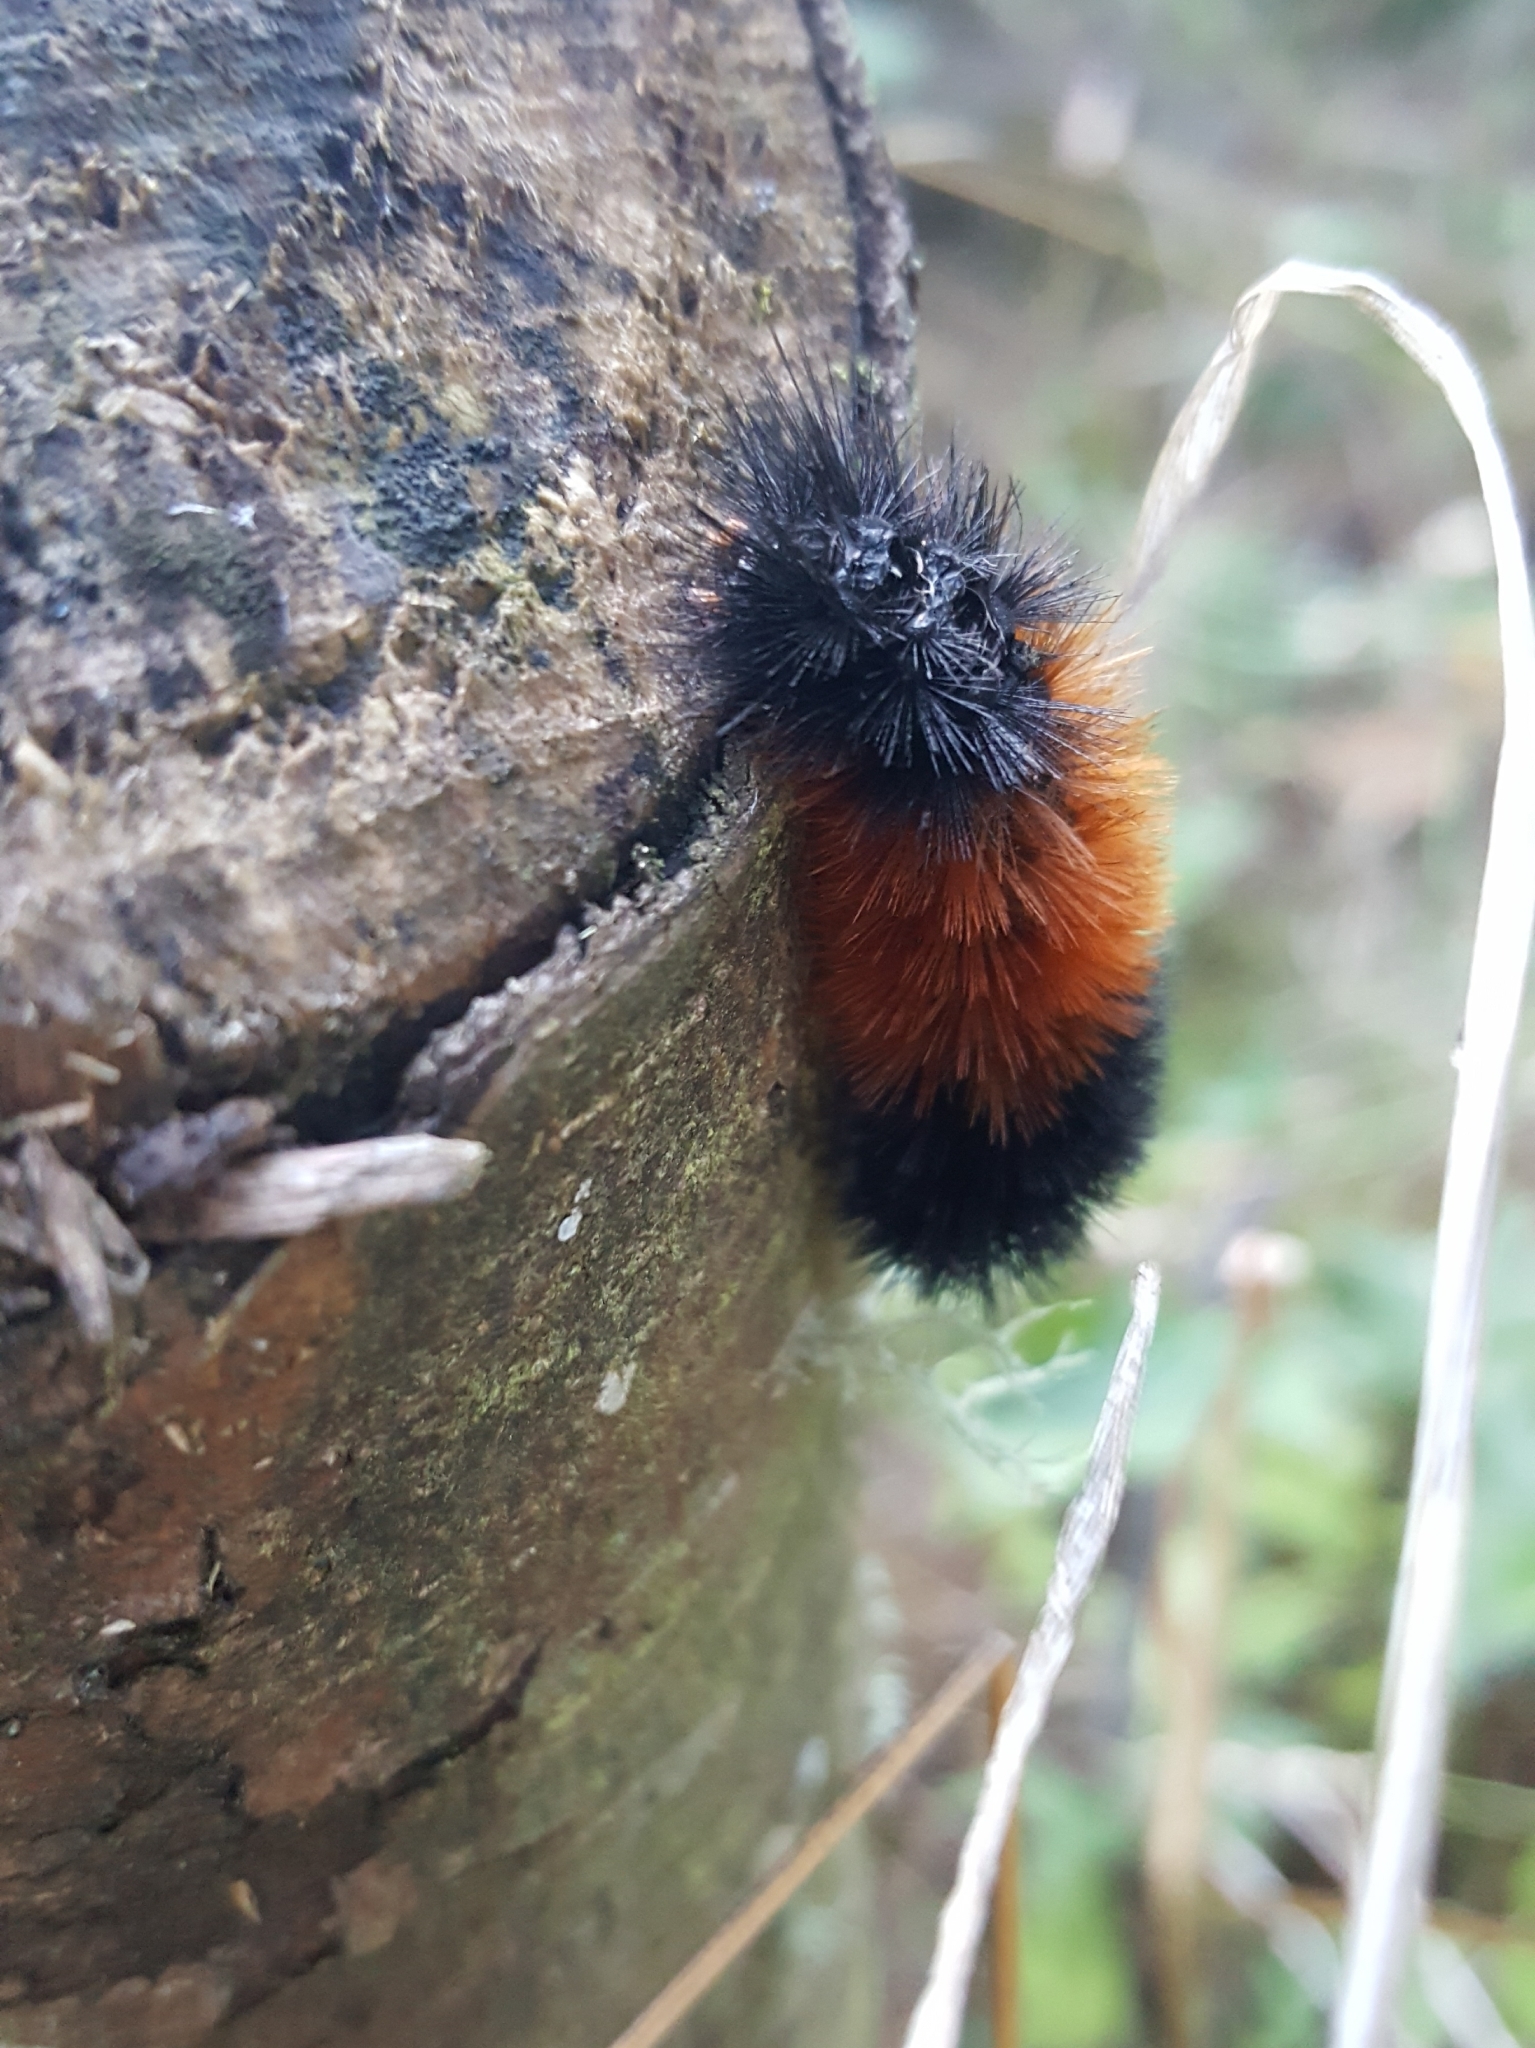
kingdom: Animalia
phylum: Arthropoda
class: Insecta
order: Lepidoptera
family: Erebidae
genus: Pyrrharctia
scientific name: Pyrrharctia isabella
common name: Isabella tiger moth
